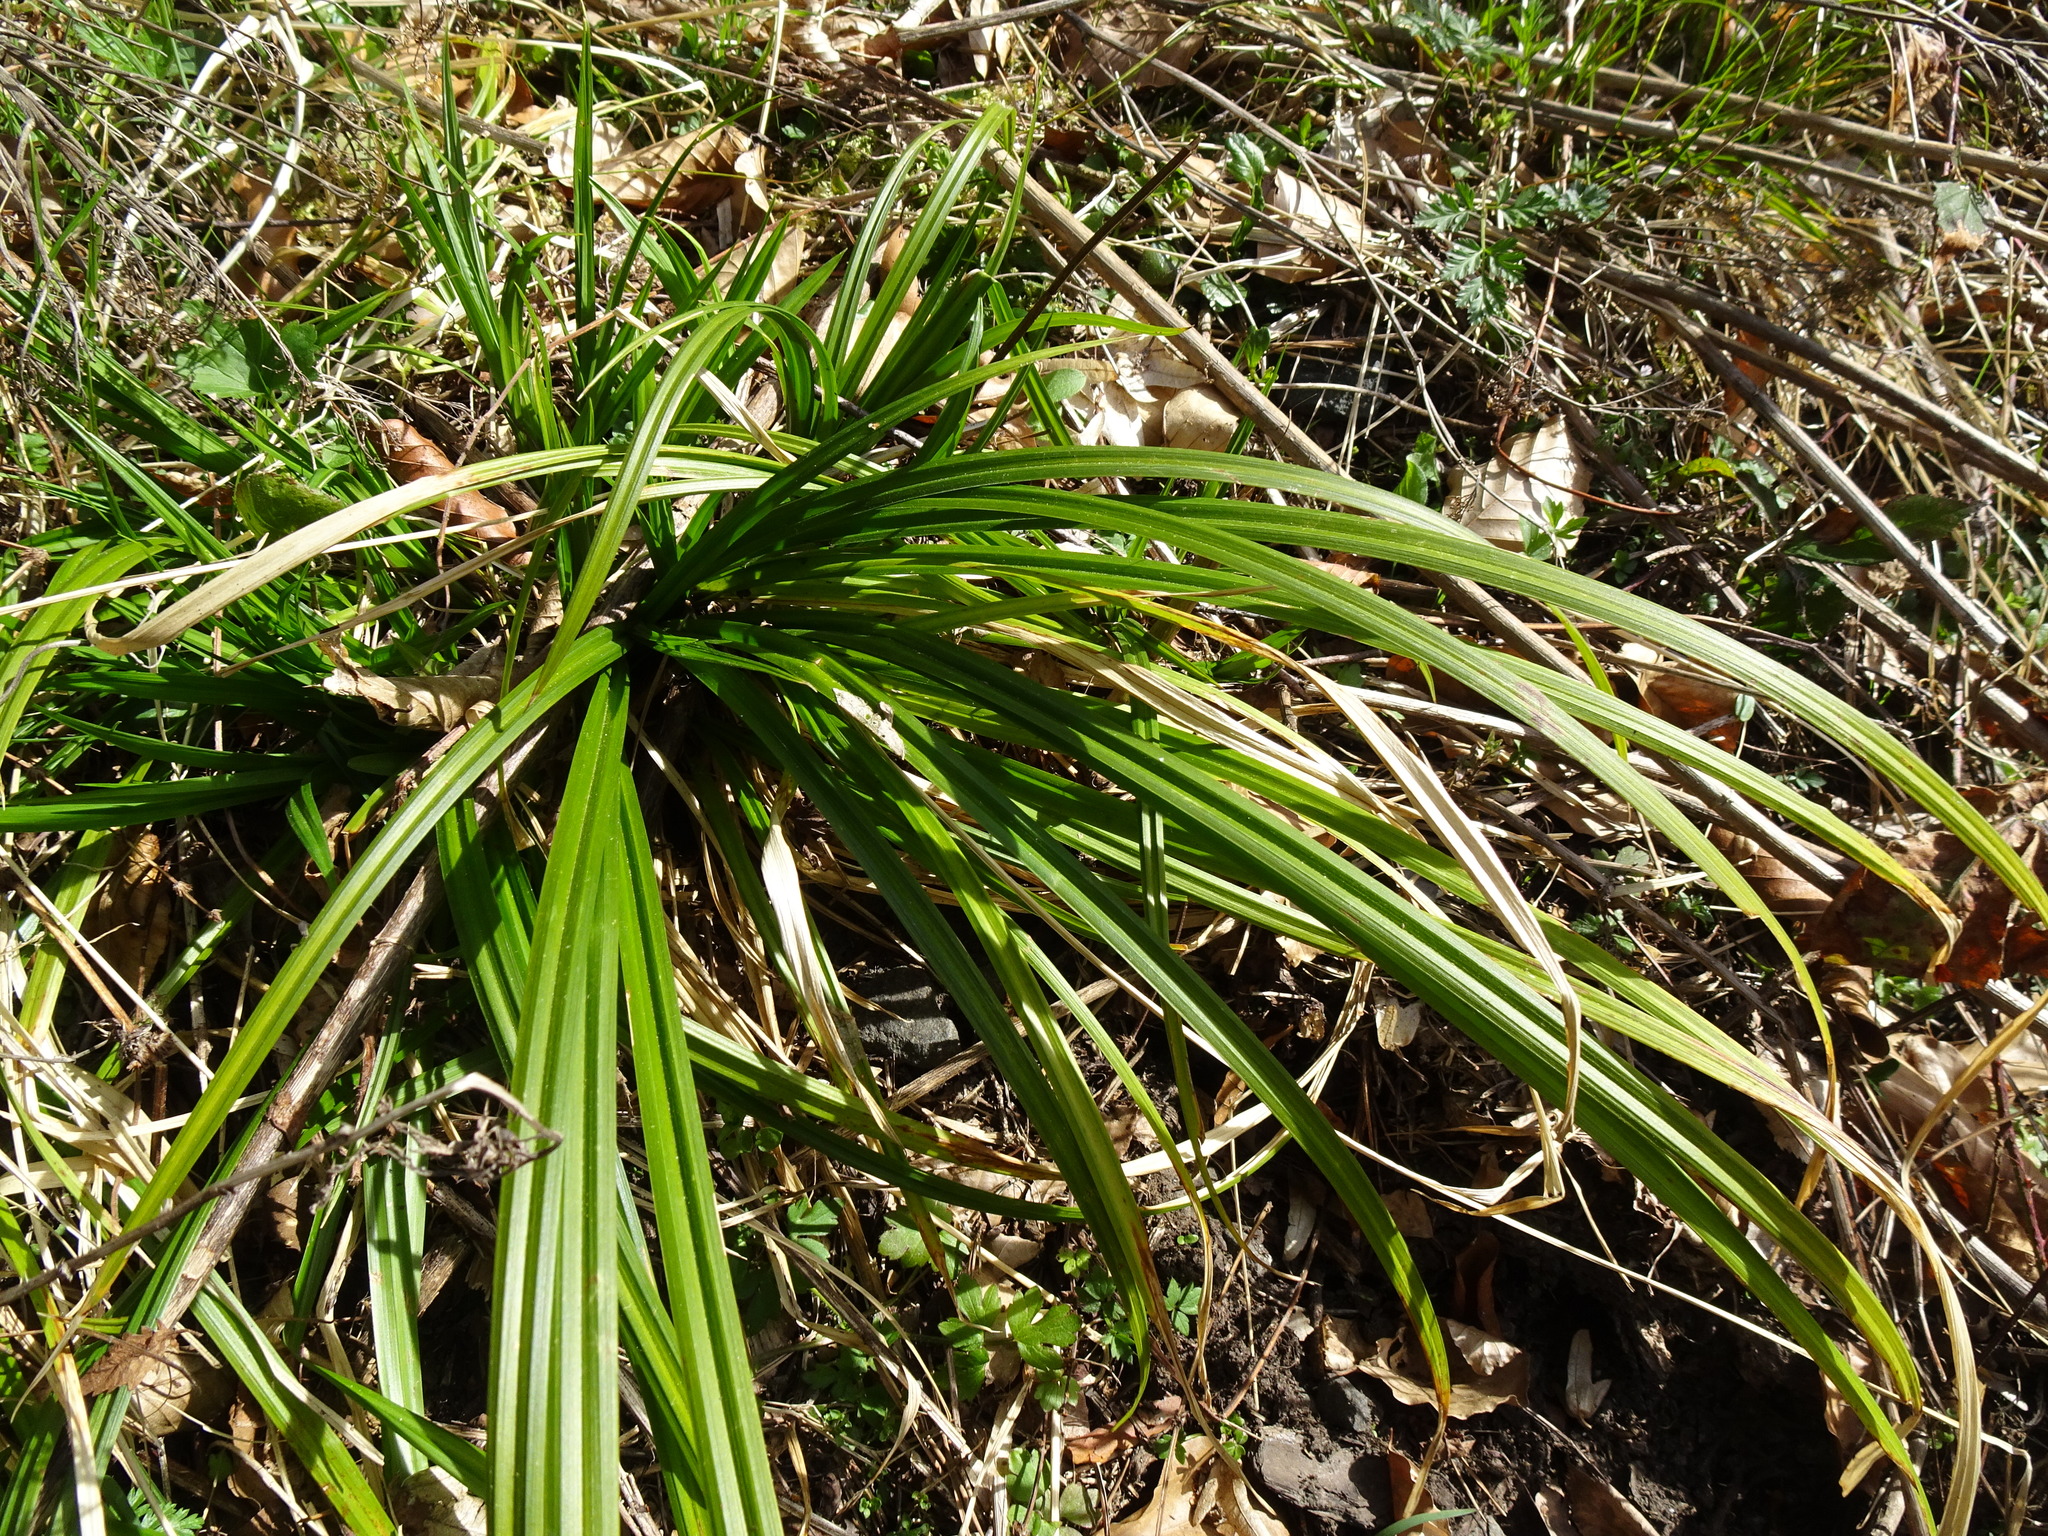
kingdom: Plantae
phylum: Tracheophyta
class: Liliopsida
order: Poales
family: Cyperaceae
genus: Carex
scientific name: Carex sylvatica
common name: Wood-sedge
